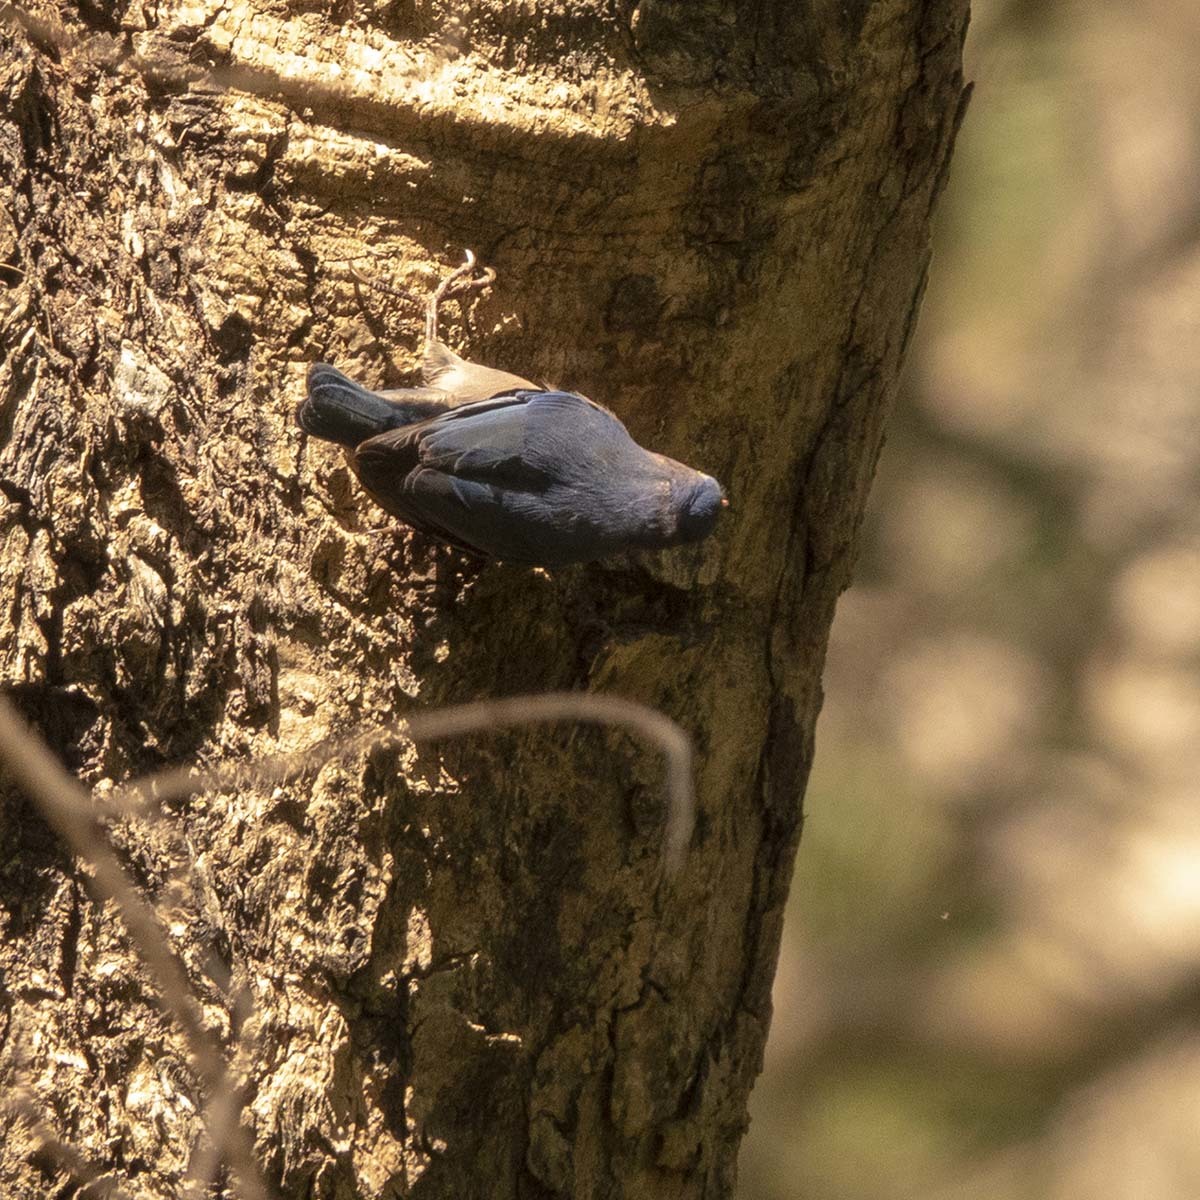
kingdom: Animalia
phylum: Chordata
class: Aves
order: Passeriformes
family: Sittidae
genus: Sitta
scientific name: Sitta frontalis
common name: Velvet-fronted nuthatch
